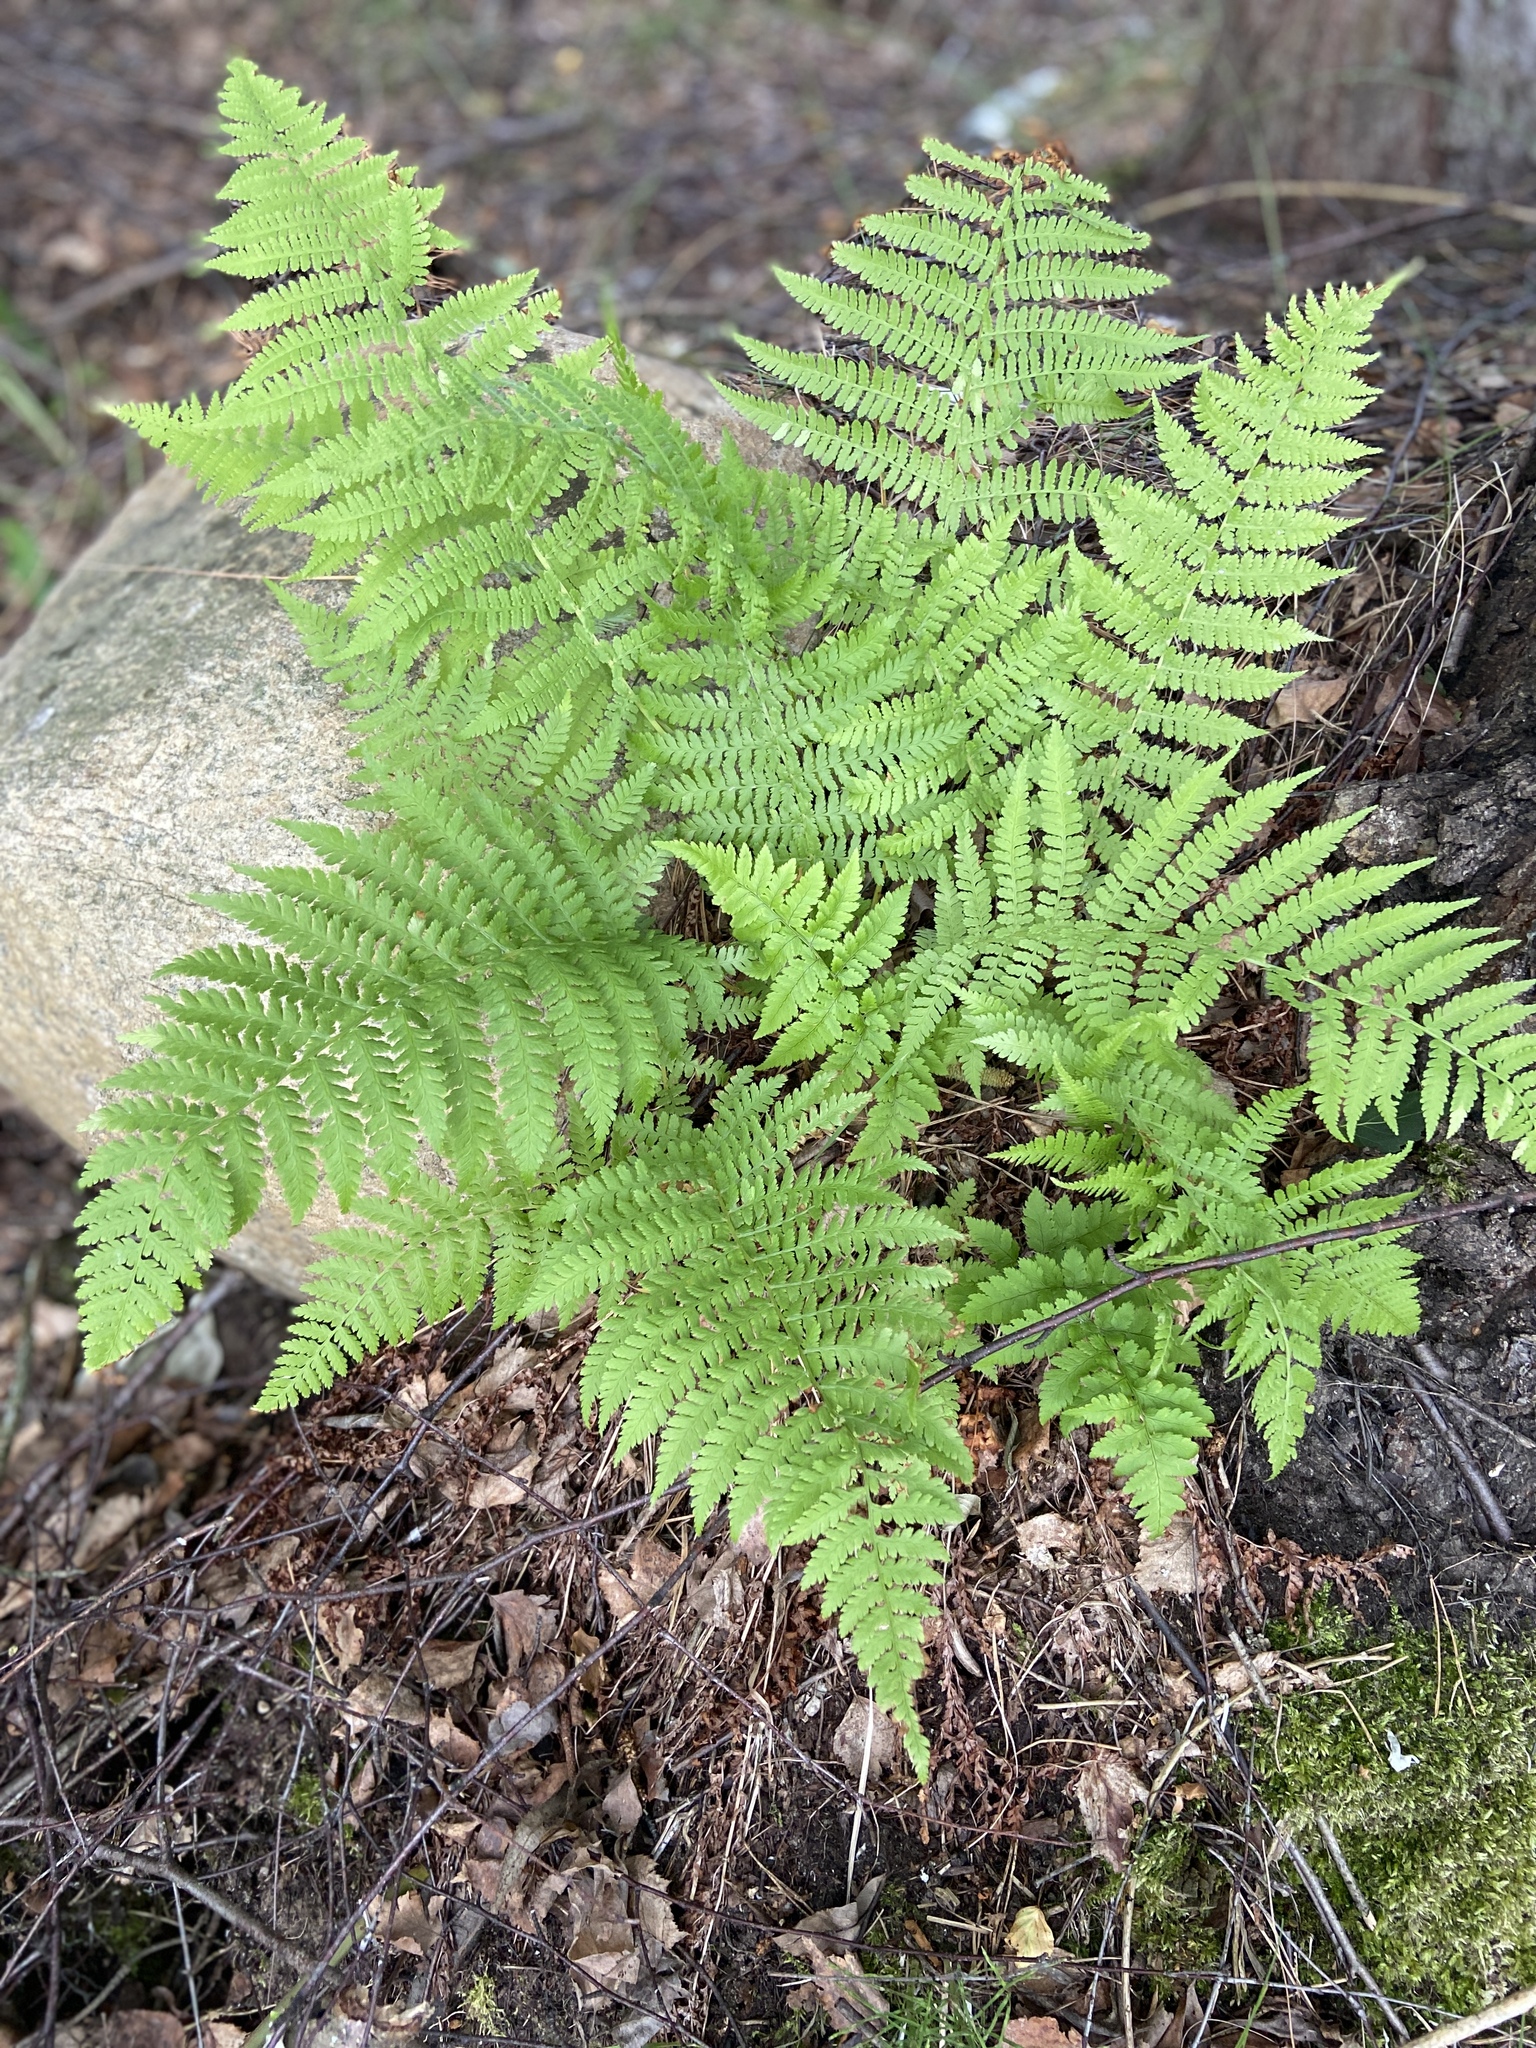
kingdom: Plantae
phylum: Tracheophyta
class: Polypodiopsida
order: Polypodiales
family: Athyriaceae
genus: Athyrium
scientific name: Athyrium filix-femina
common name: Lady fern
